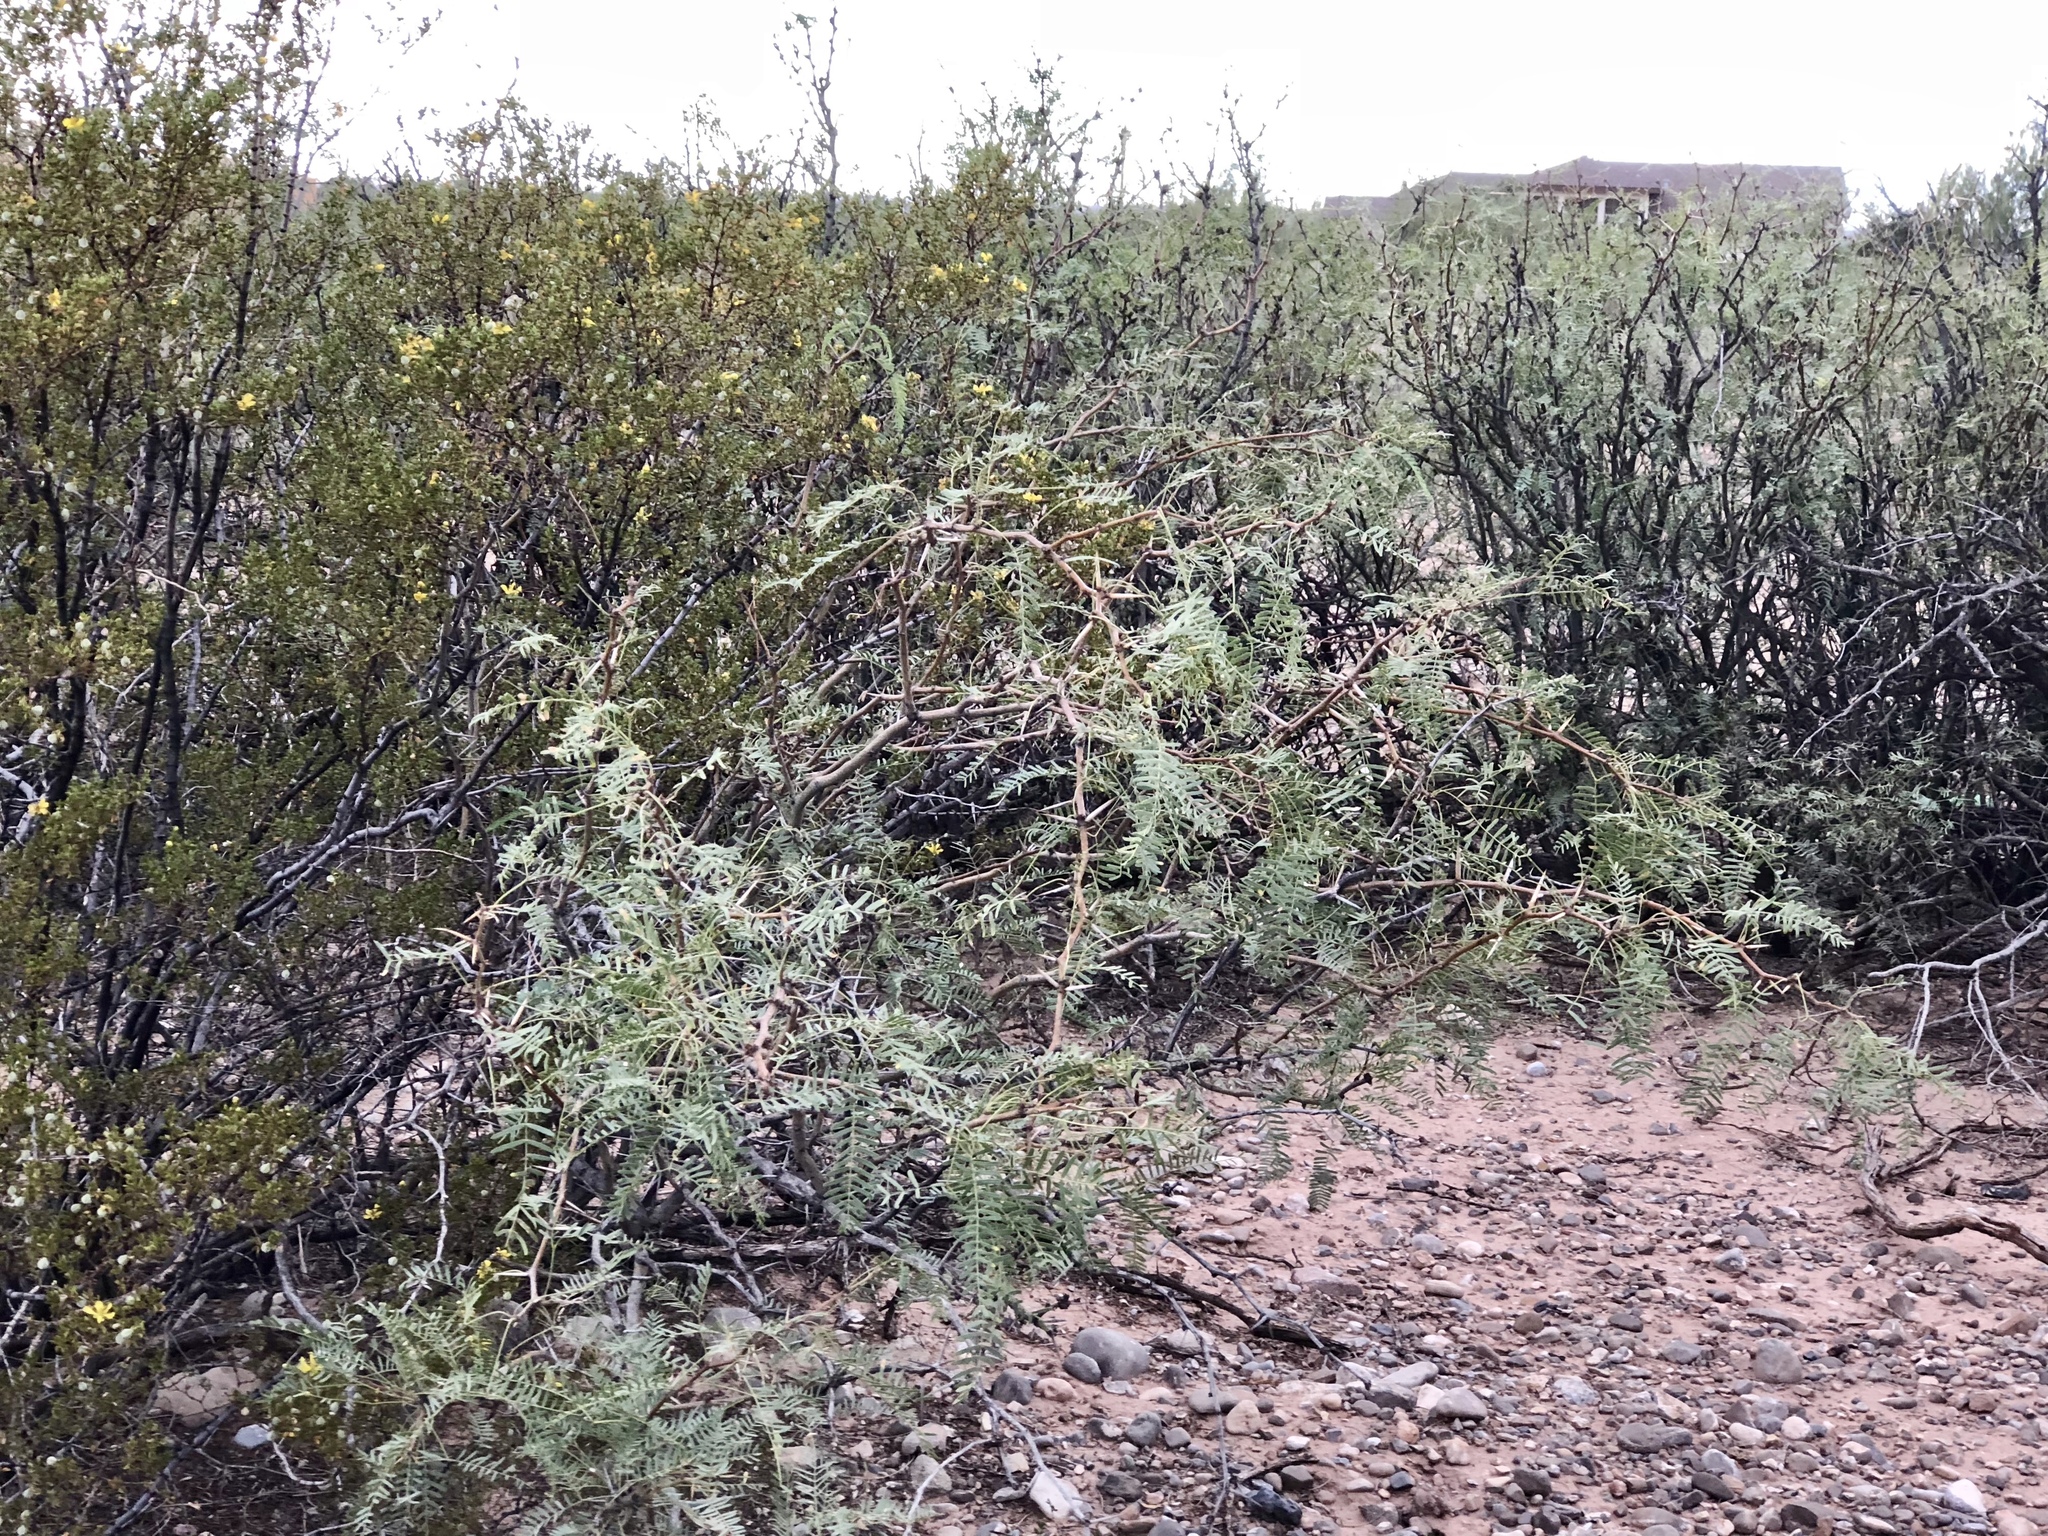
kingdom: Plantae
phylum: Tracheophyta
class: Magnoliopsida
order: Fabales
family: Fabaceae
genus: Prosopis
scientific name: Prosopis glandulosa
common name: Honey mesquite
